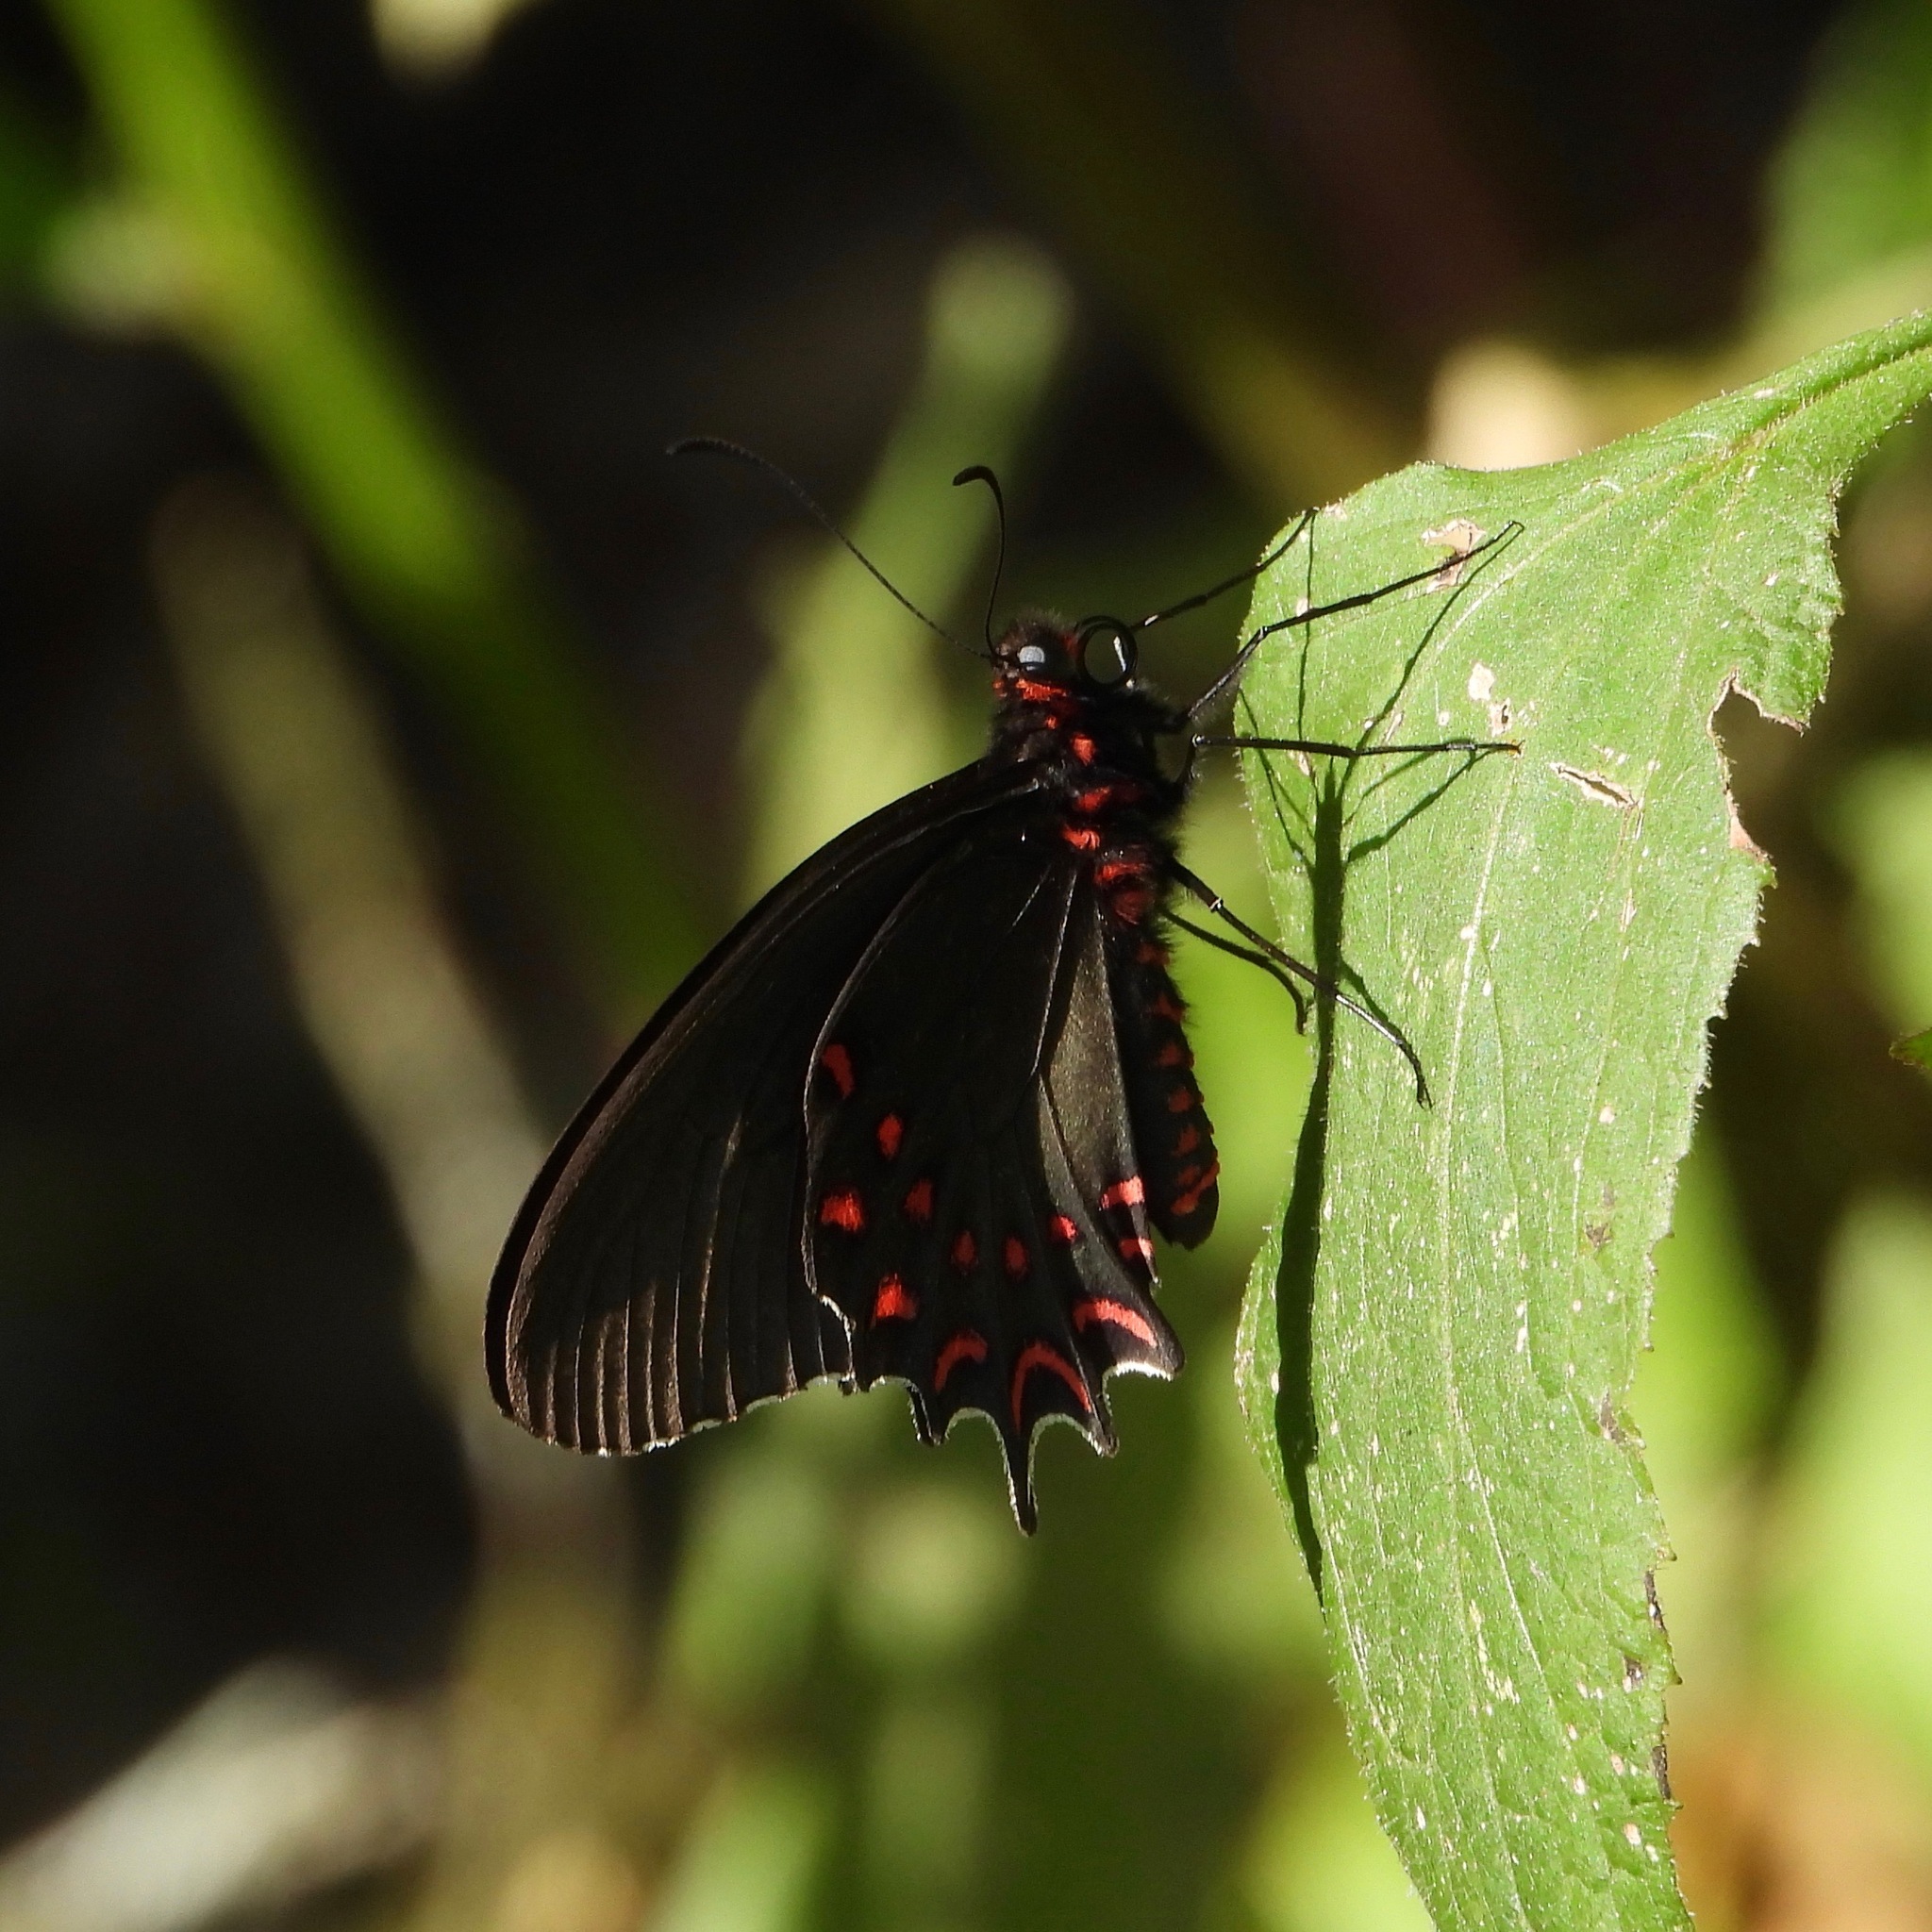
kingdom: Animalia
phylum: Arthropoda
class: Insecta
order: Lepidoptera
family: Papilionidae
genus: Parides
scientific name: Parides photinus
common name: Pink-spotted cattleheart
